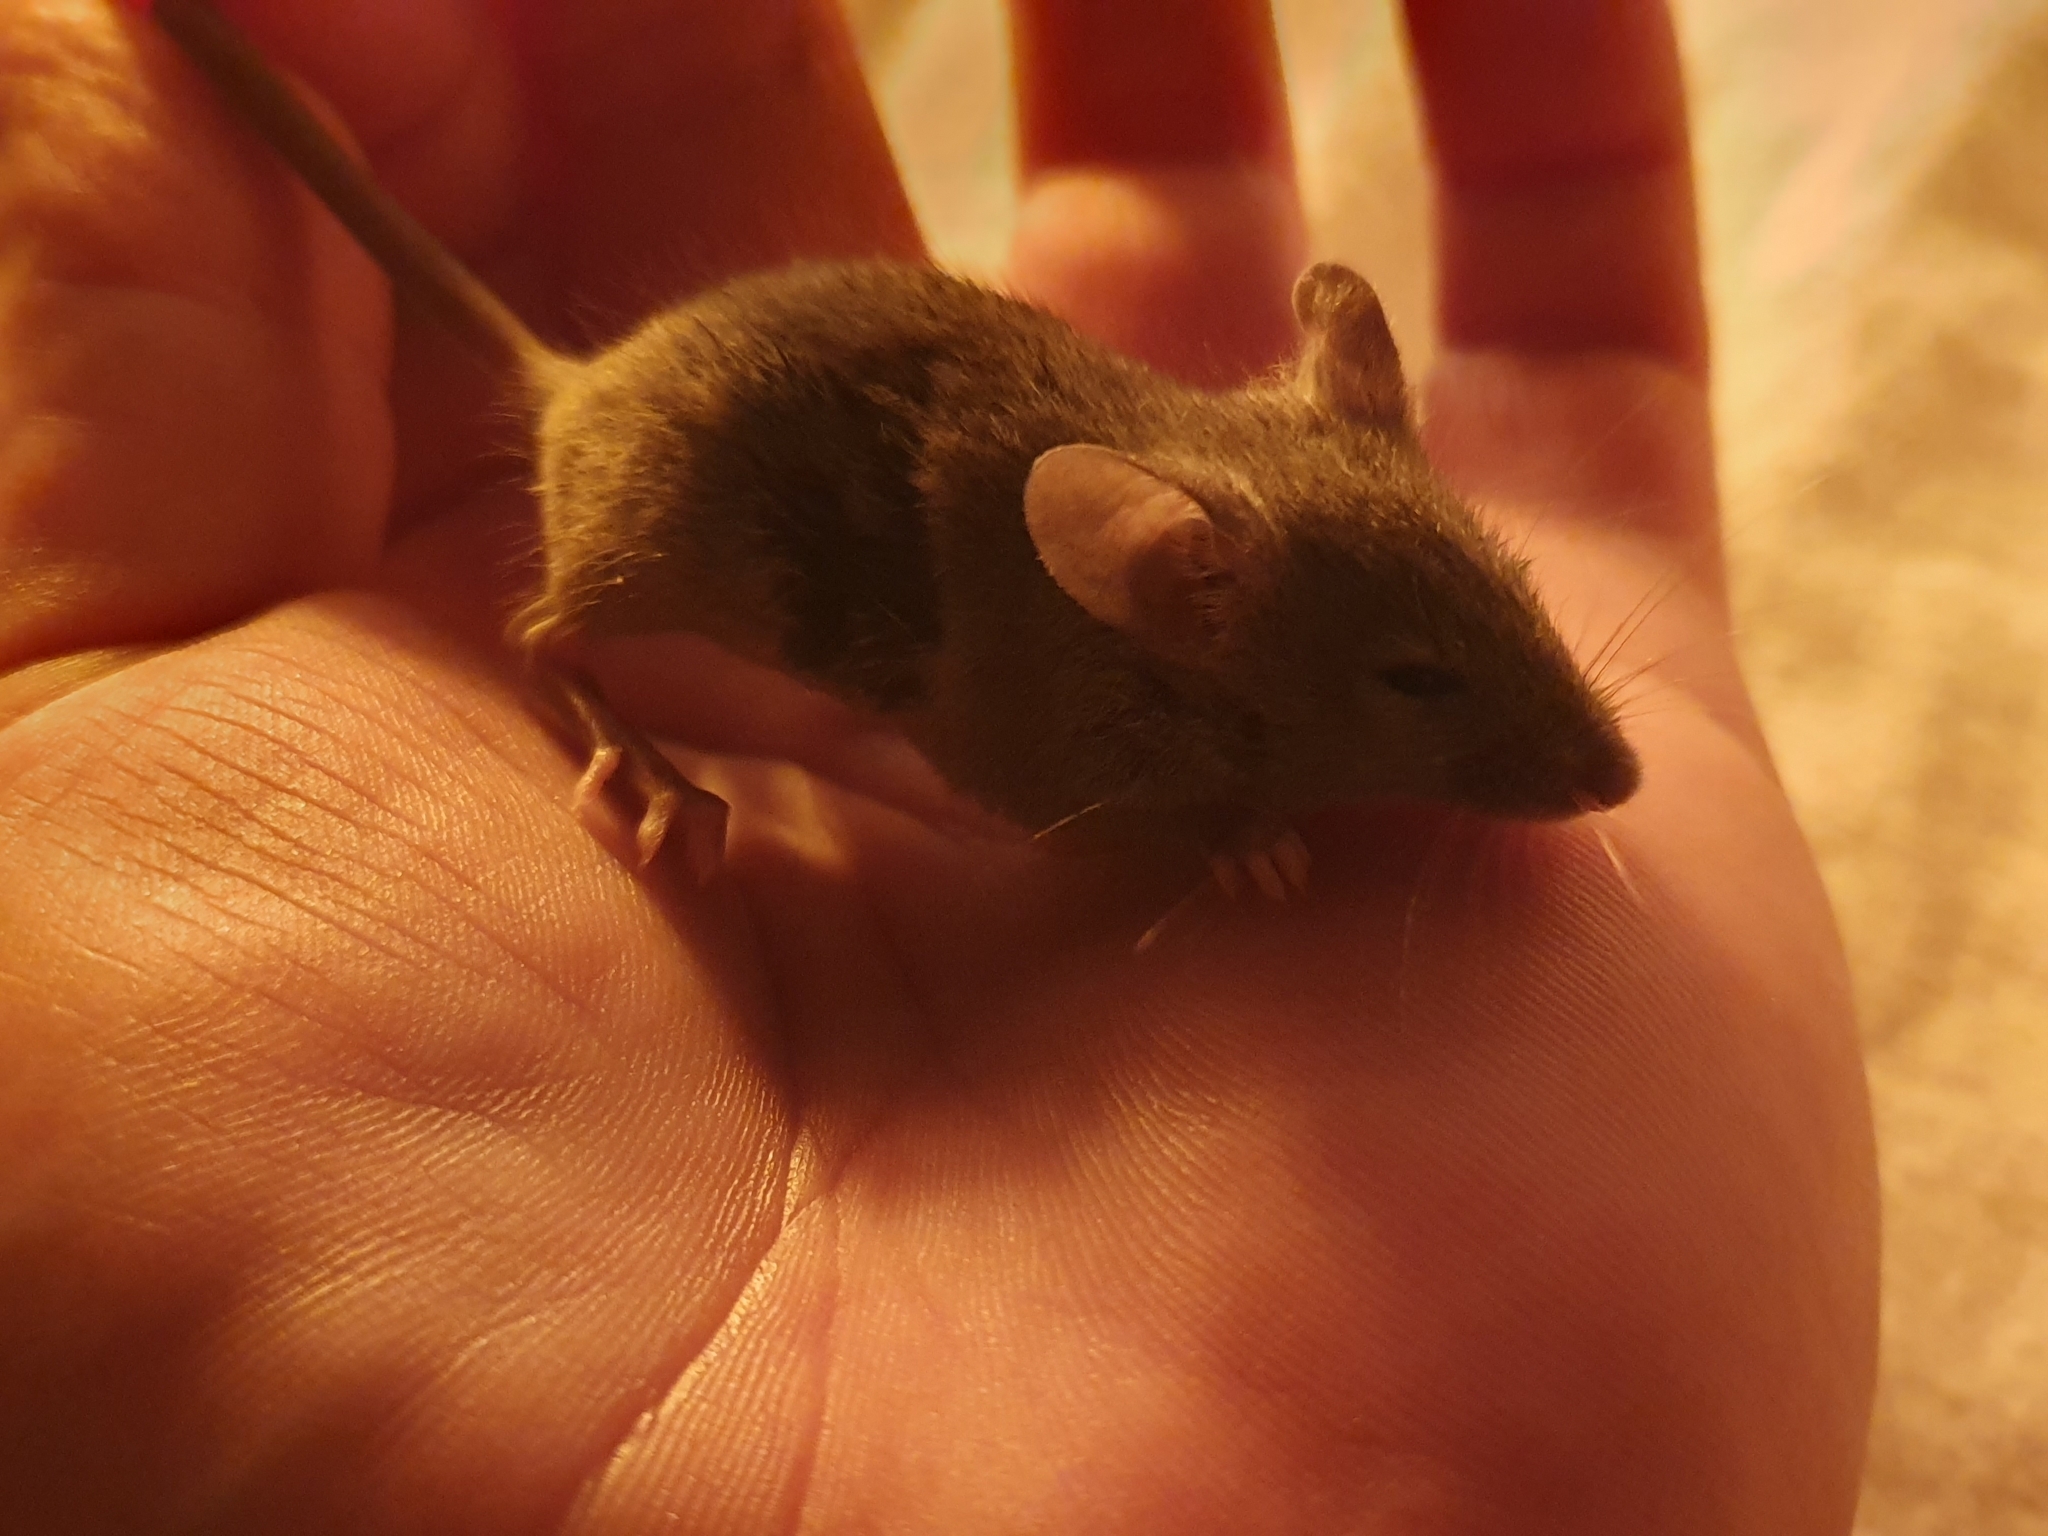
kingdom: Animalia
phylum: Chordata
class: Mammalia
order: Rodentia
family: Muridae
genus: Mus
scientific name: Mus musculus
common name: House mouse
